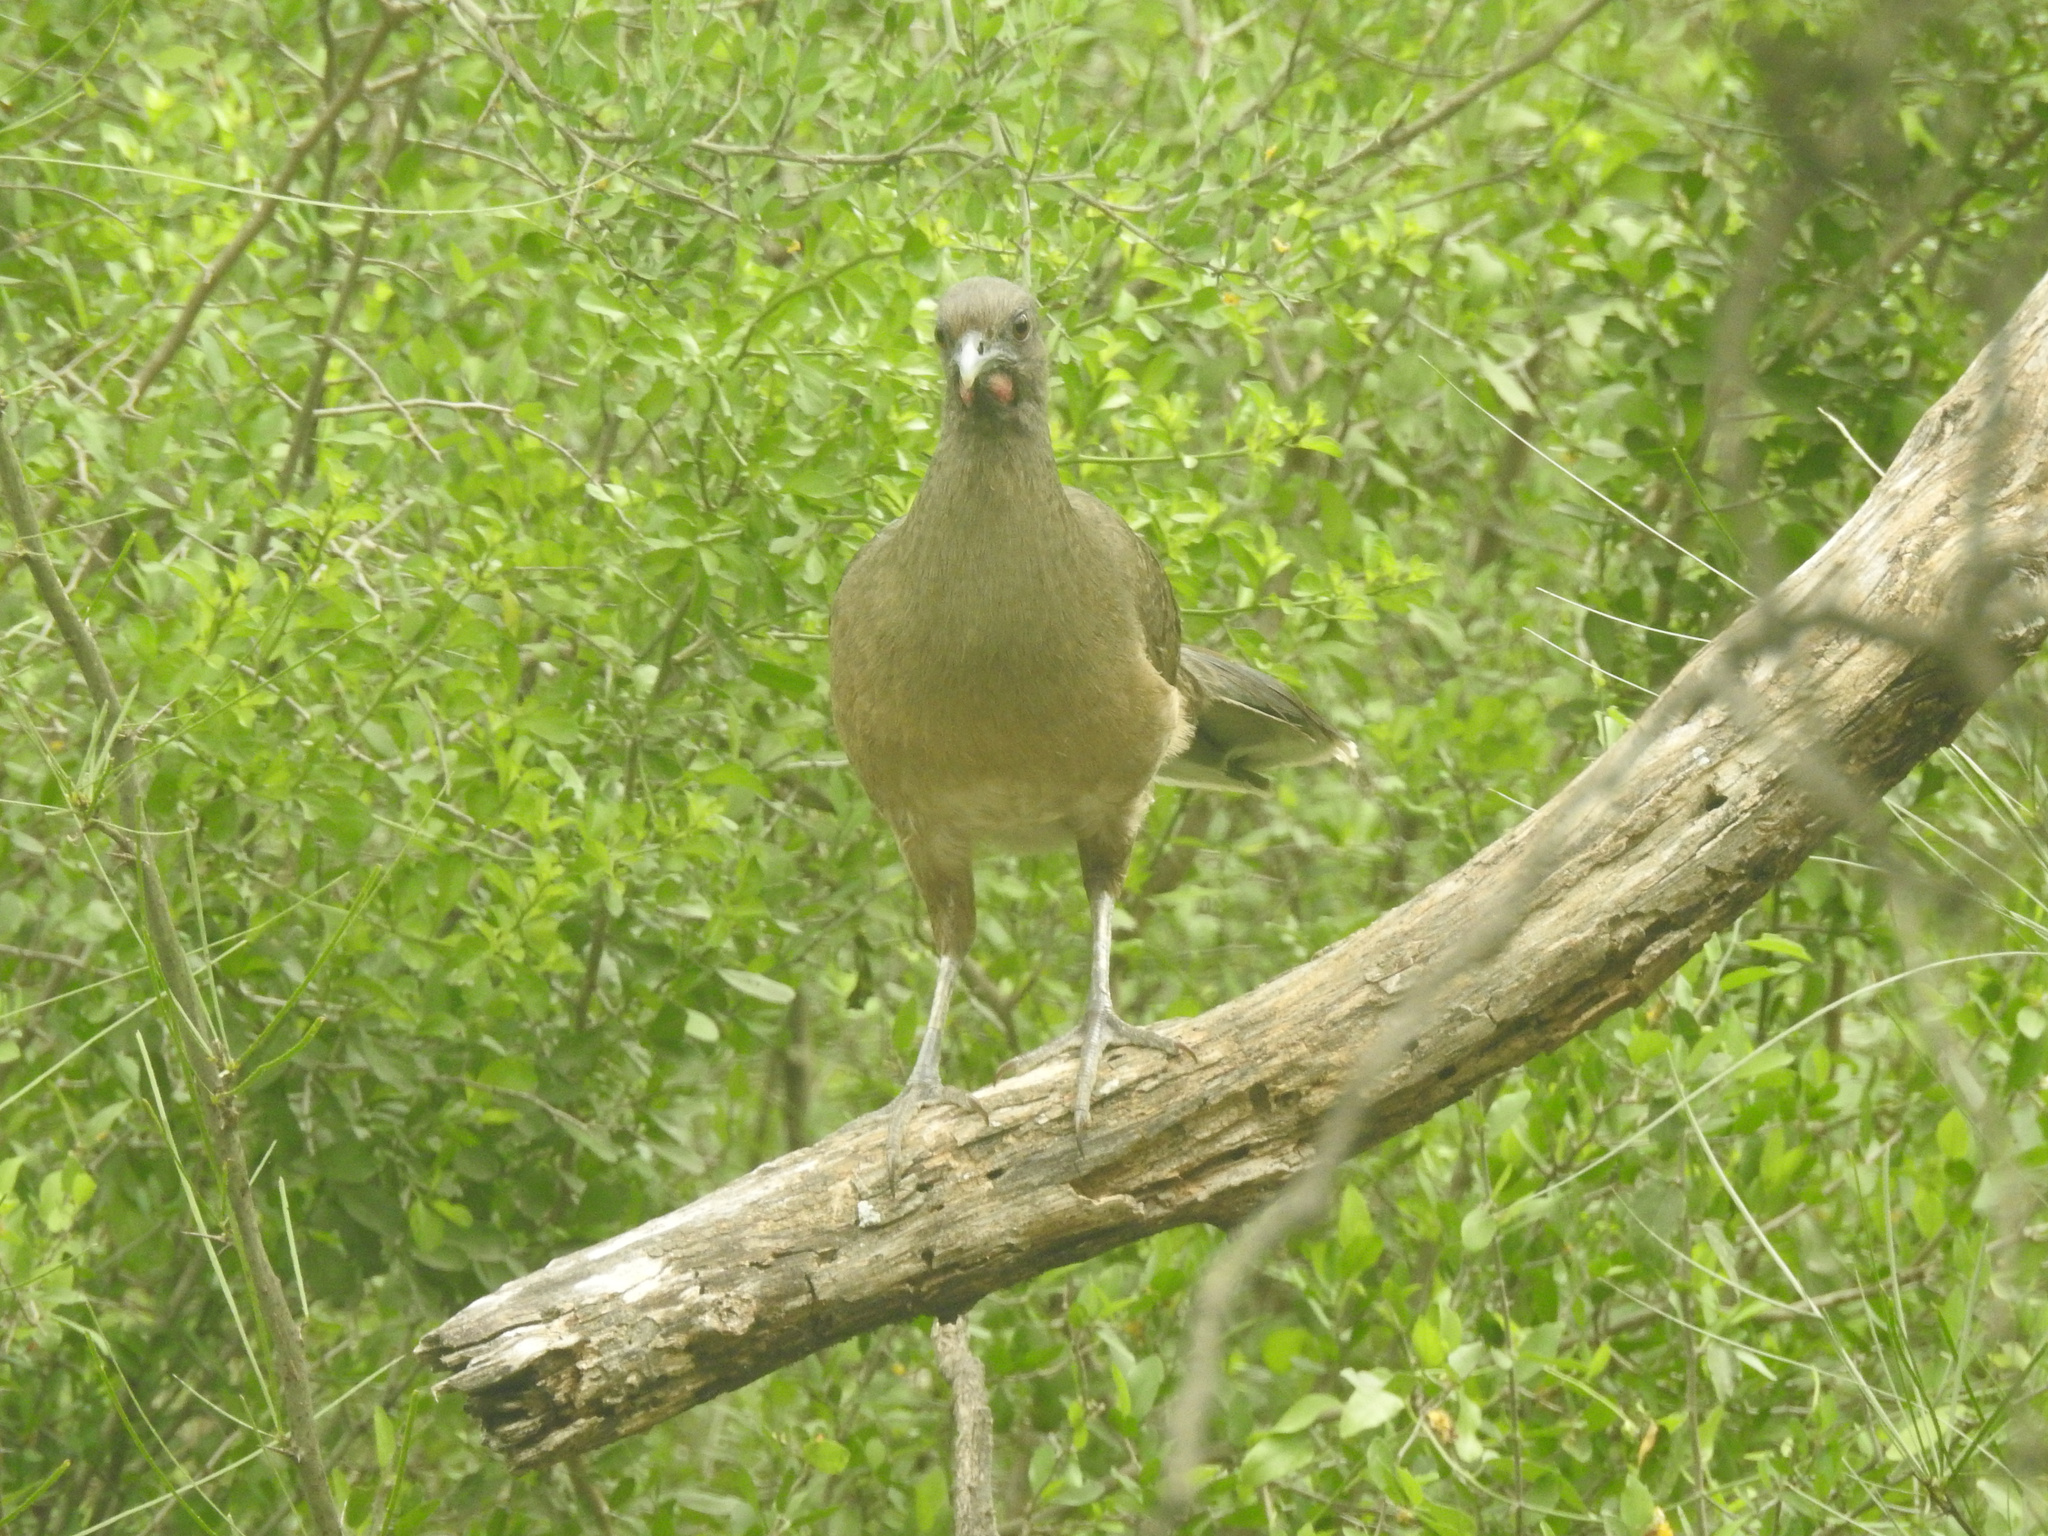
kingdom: Animalia
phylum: Chordata
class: Aves
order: Galliformes
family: Cracidae
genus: Ortalis
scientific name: Ortalis vetula
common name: Plain chachalaca
